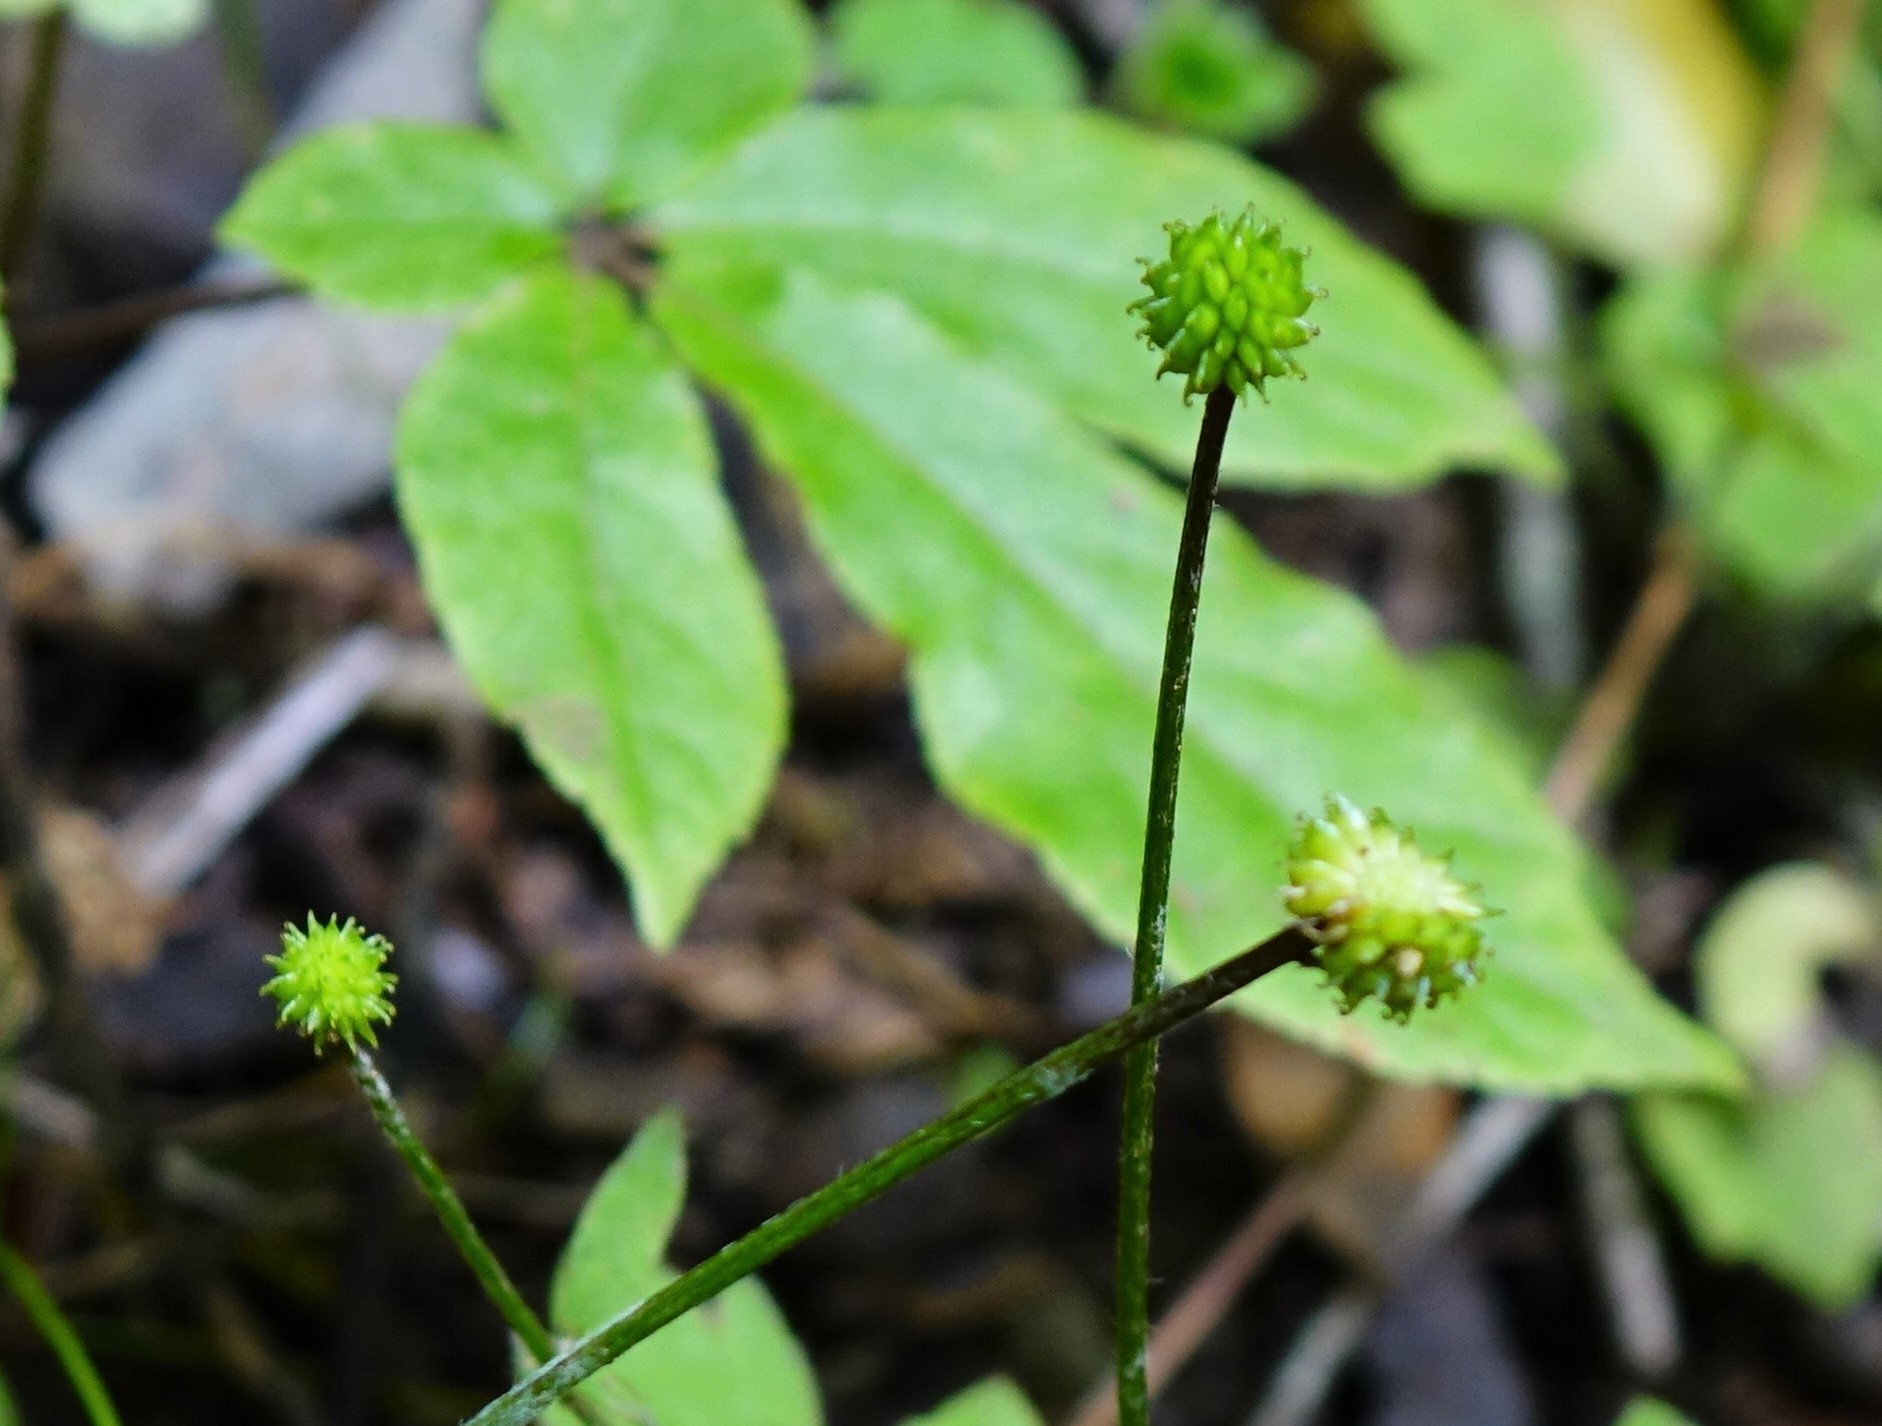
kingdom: Plantae
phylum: Tracheophyta
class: Magnoliopsida
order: Ranunculales
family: Ranunculaceae
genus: Ranunculus
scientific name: Ranunculus reflexus
